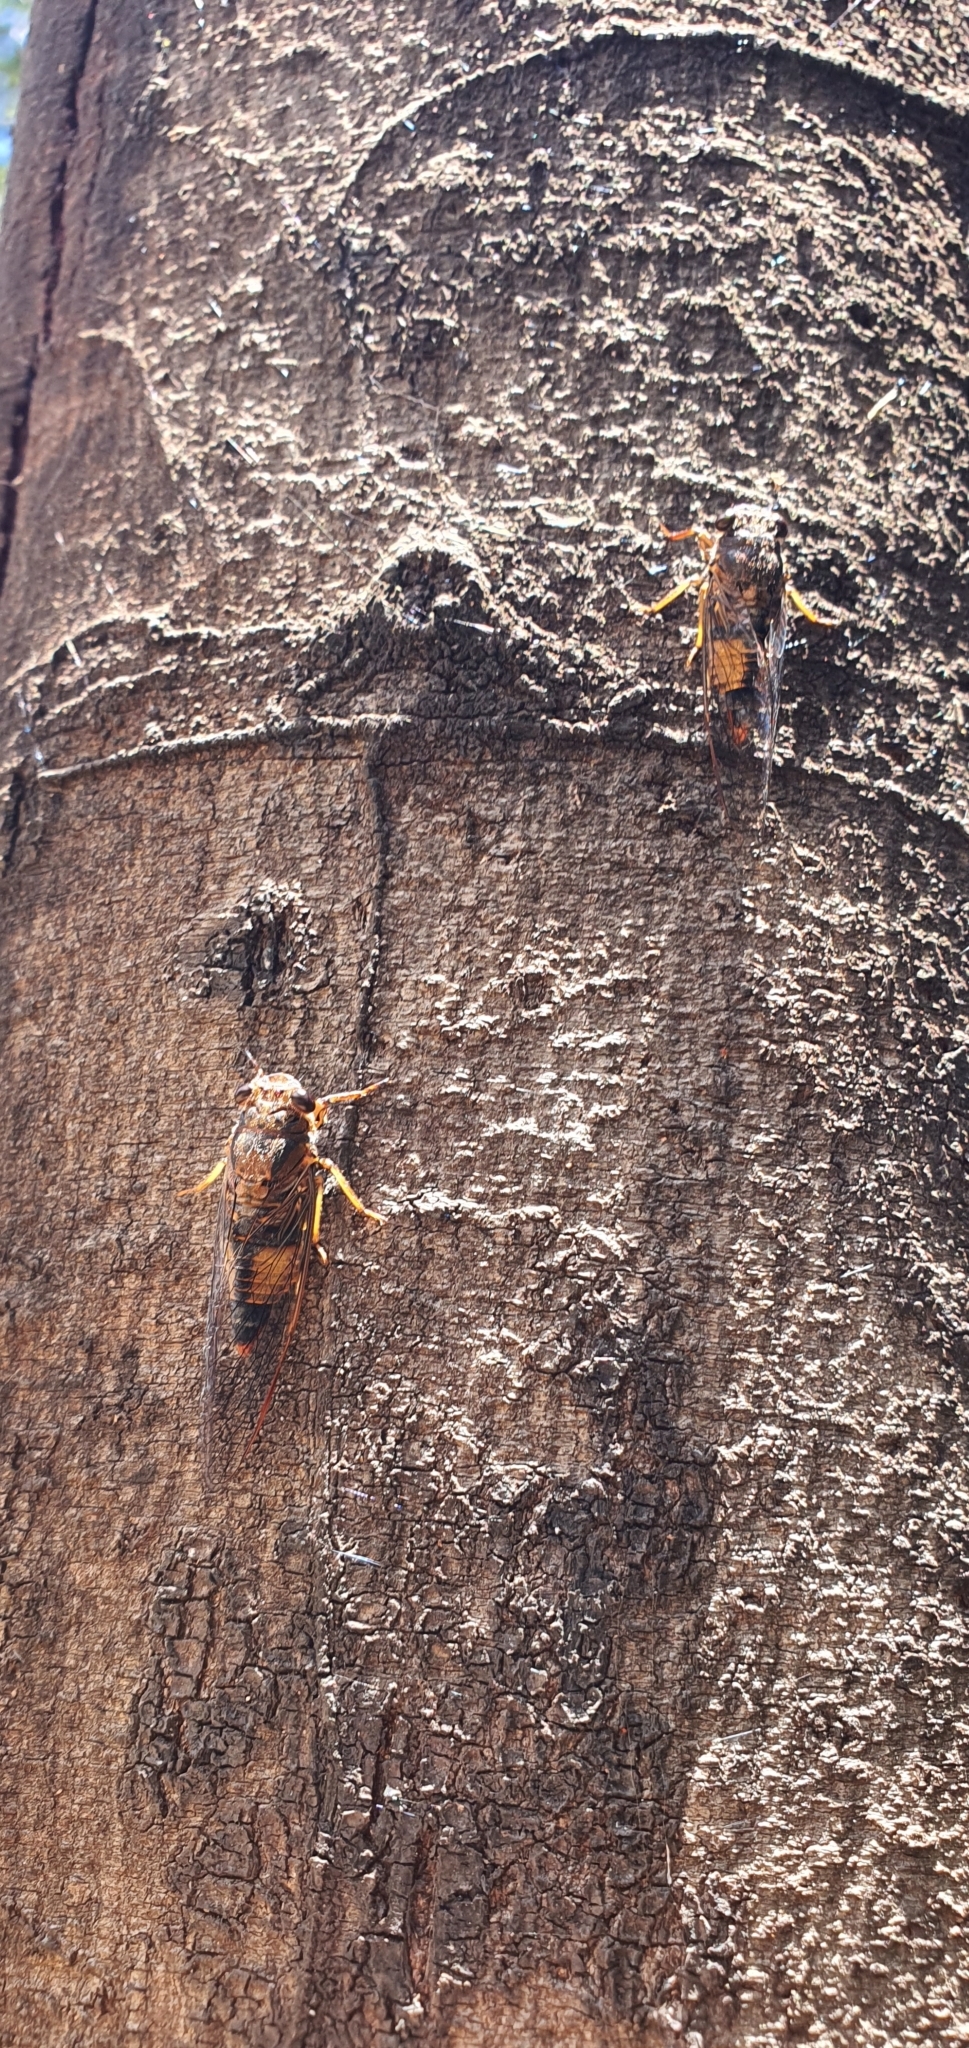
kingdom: Animalia
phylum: Arthropoda
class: Insecta
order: Hemiptera
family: Cicadidae
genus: Yoyetta
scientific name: Yoyetta repetens
